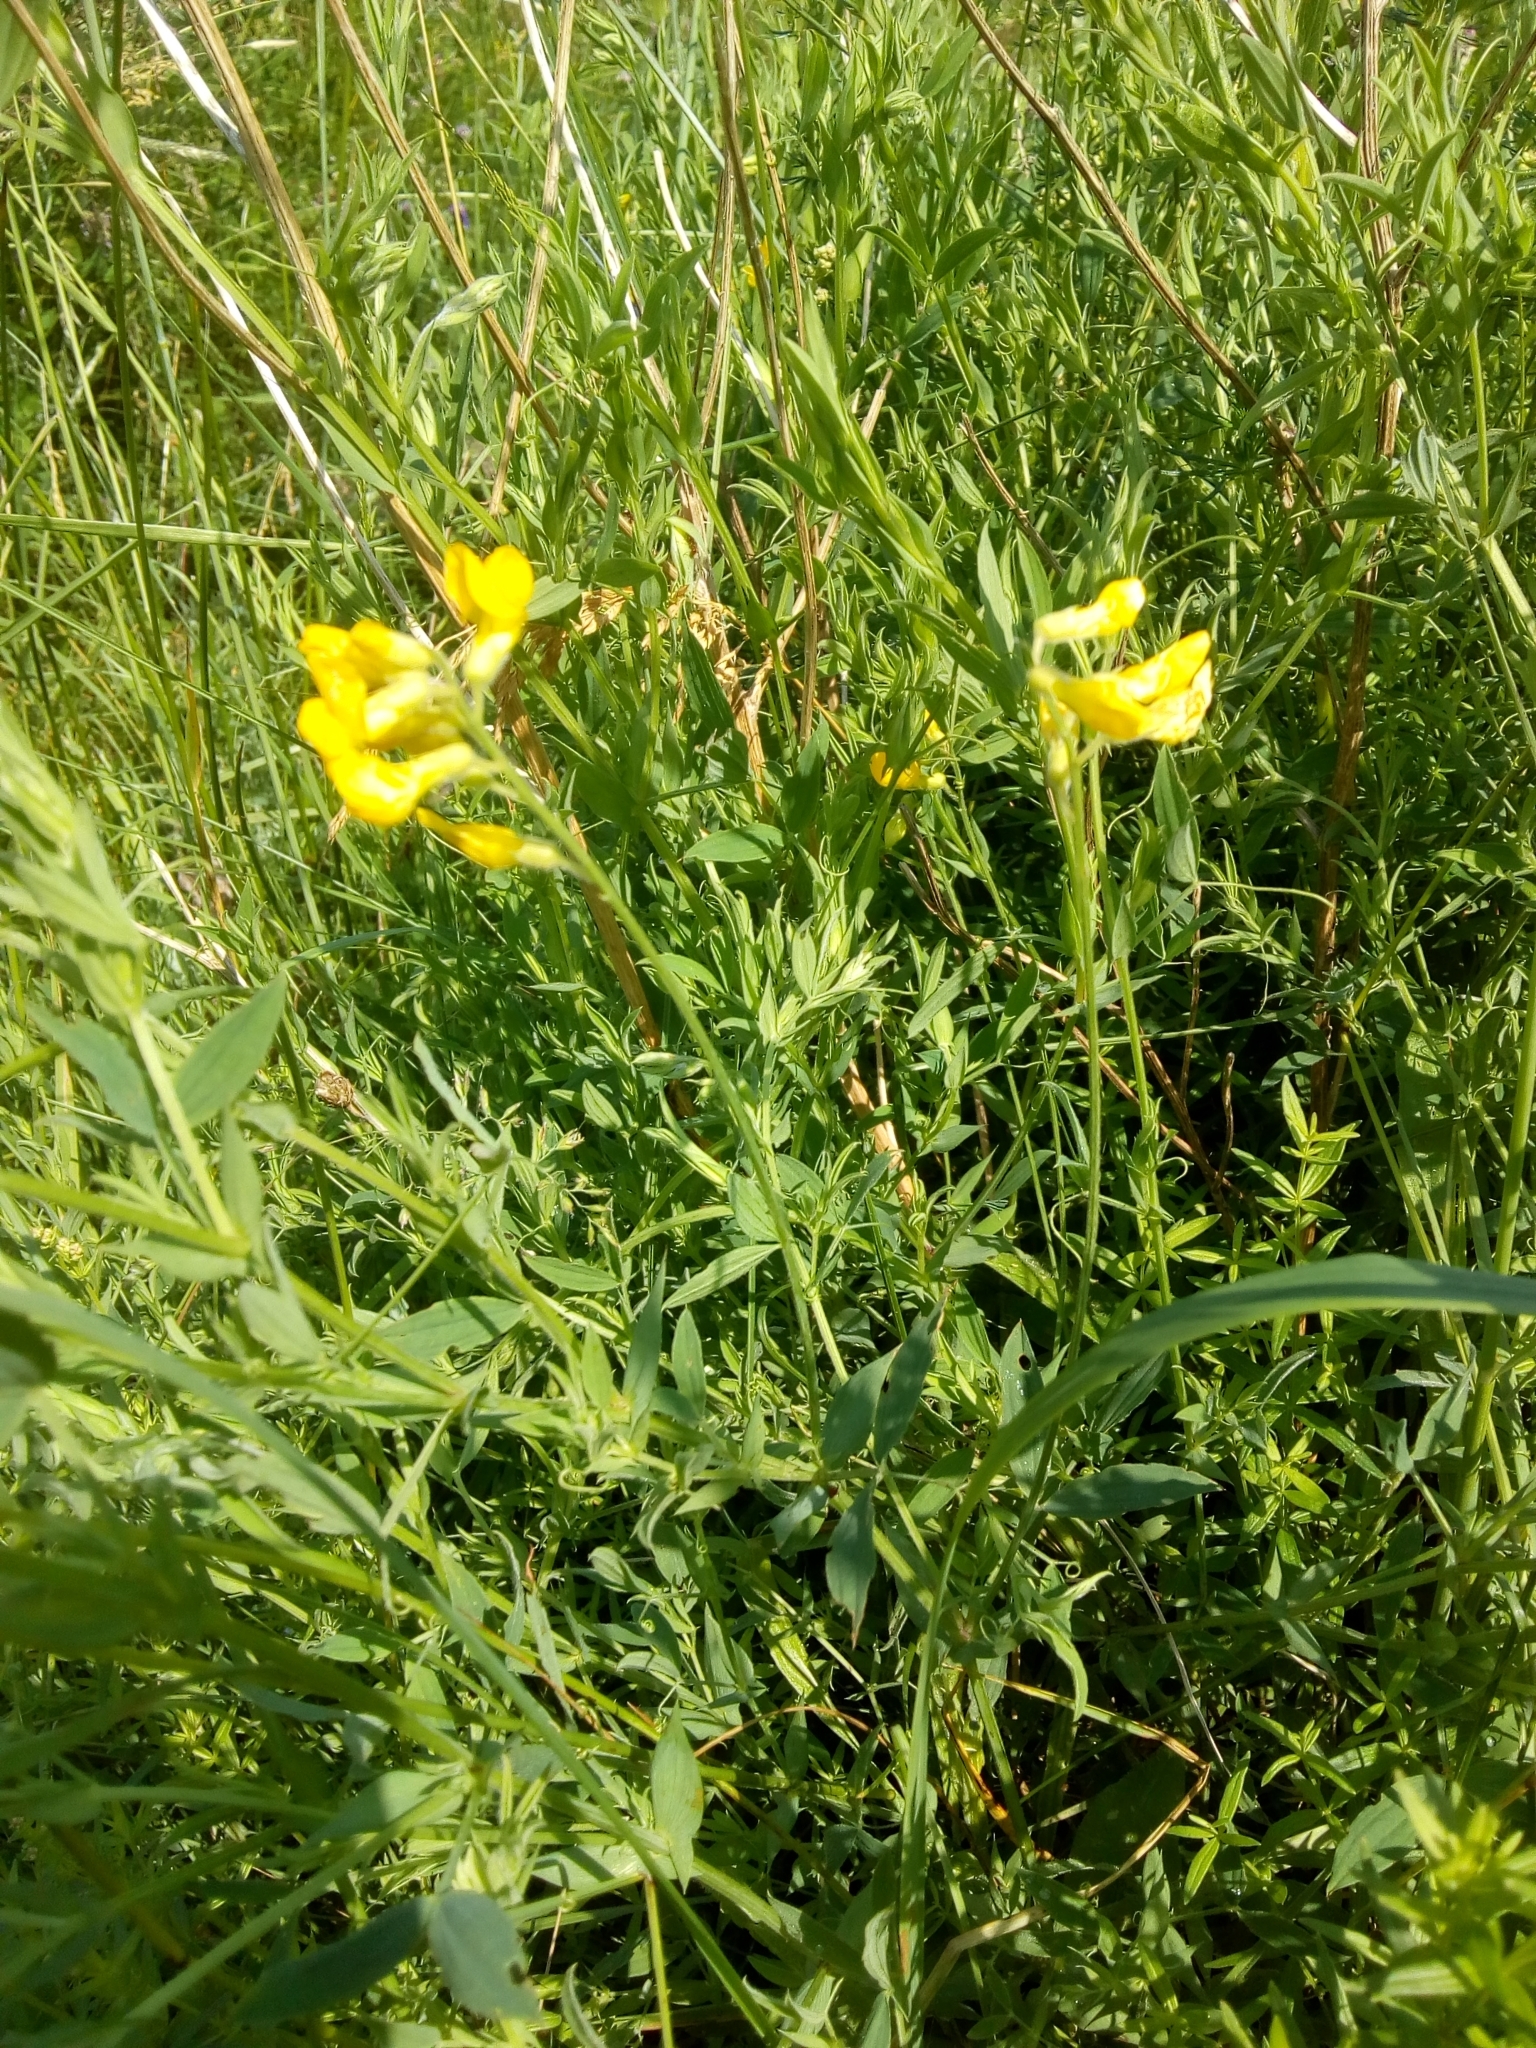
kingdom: Plantae
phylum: Tracheophyta
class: Magnoliopsida
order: Fabales
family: Fabaceae
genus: Lathyrus
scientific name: Lathyrus pratensis
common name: Meadow vetchling
